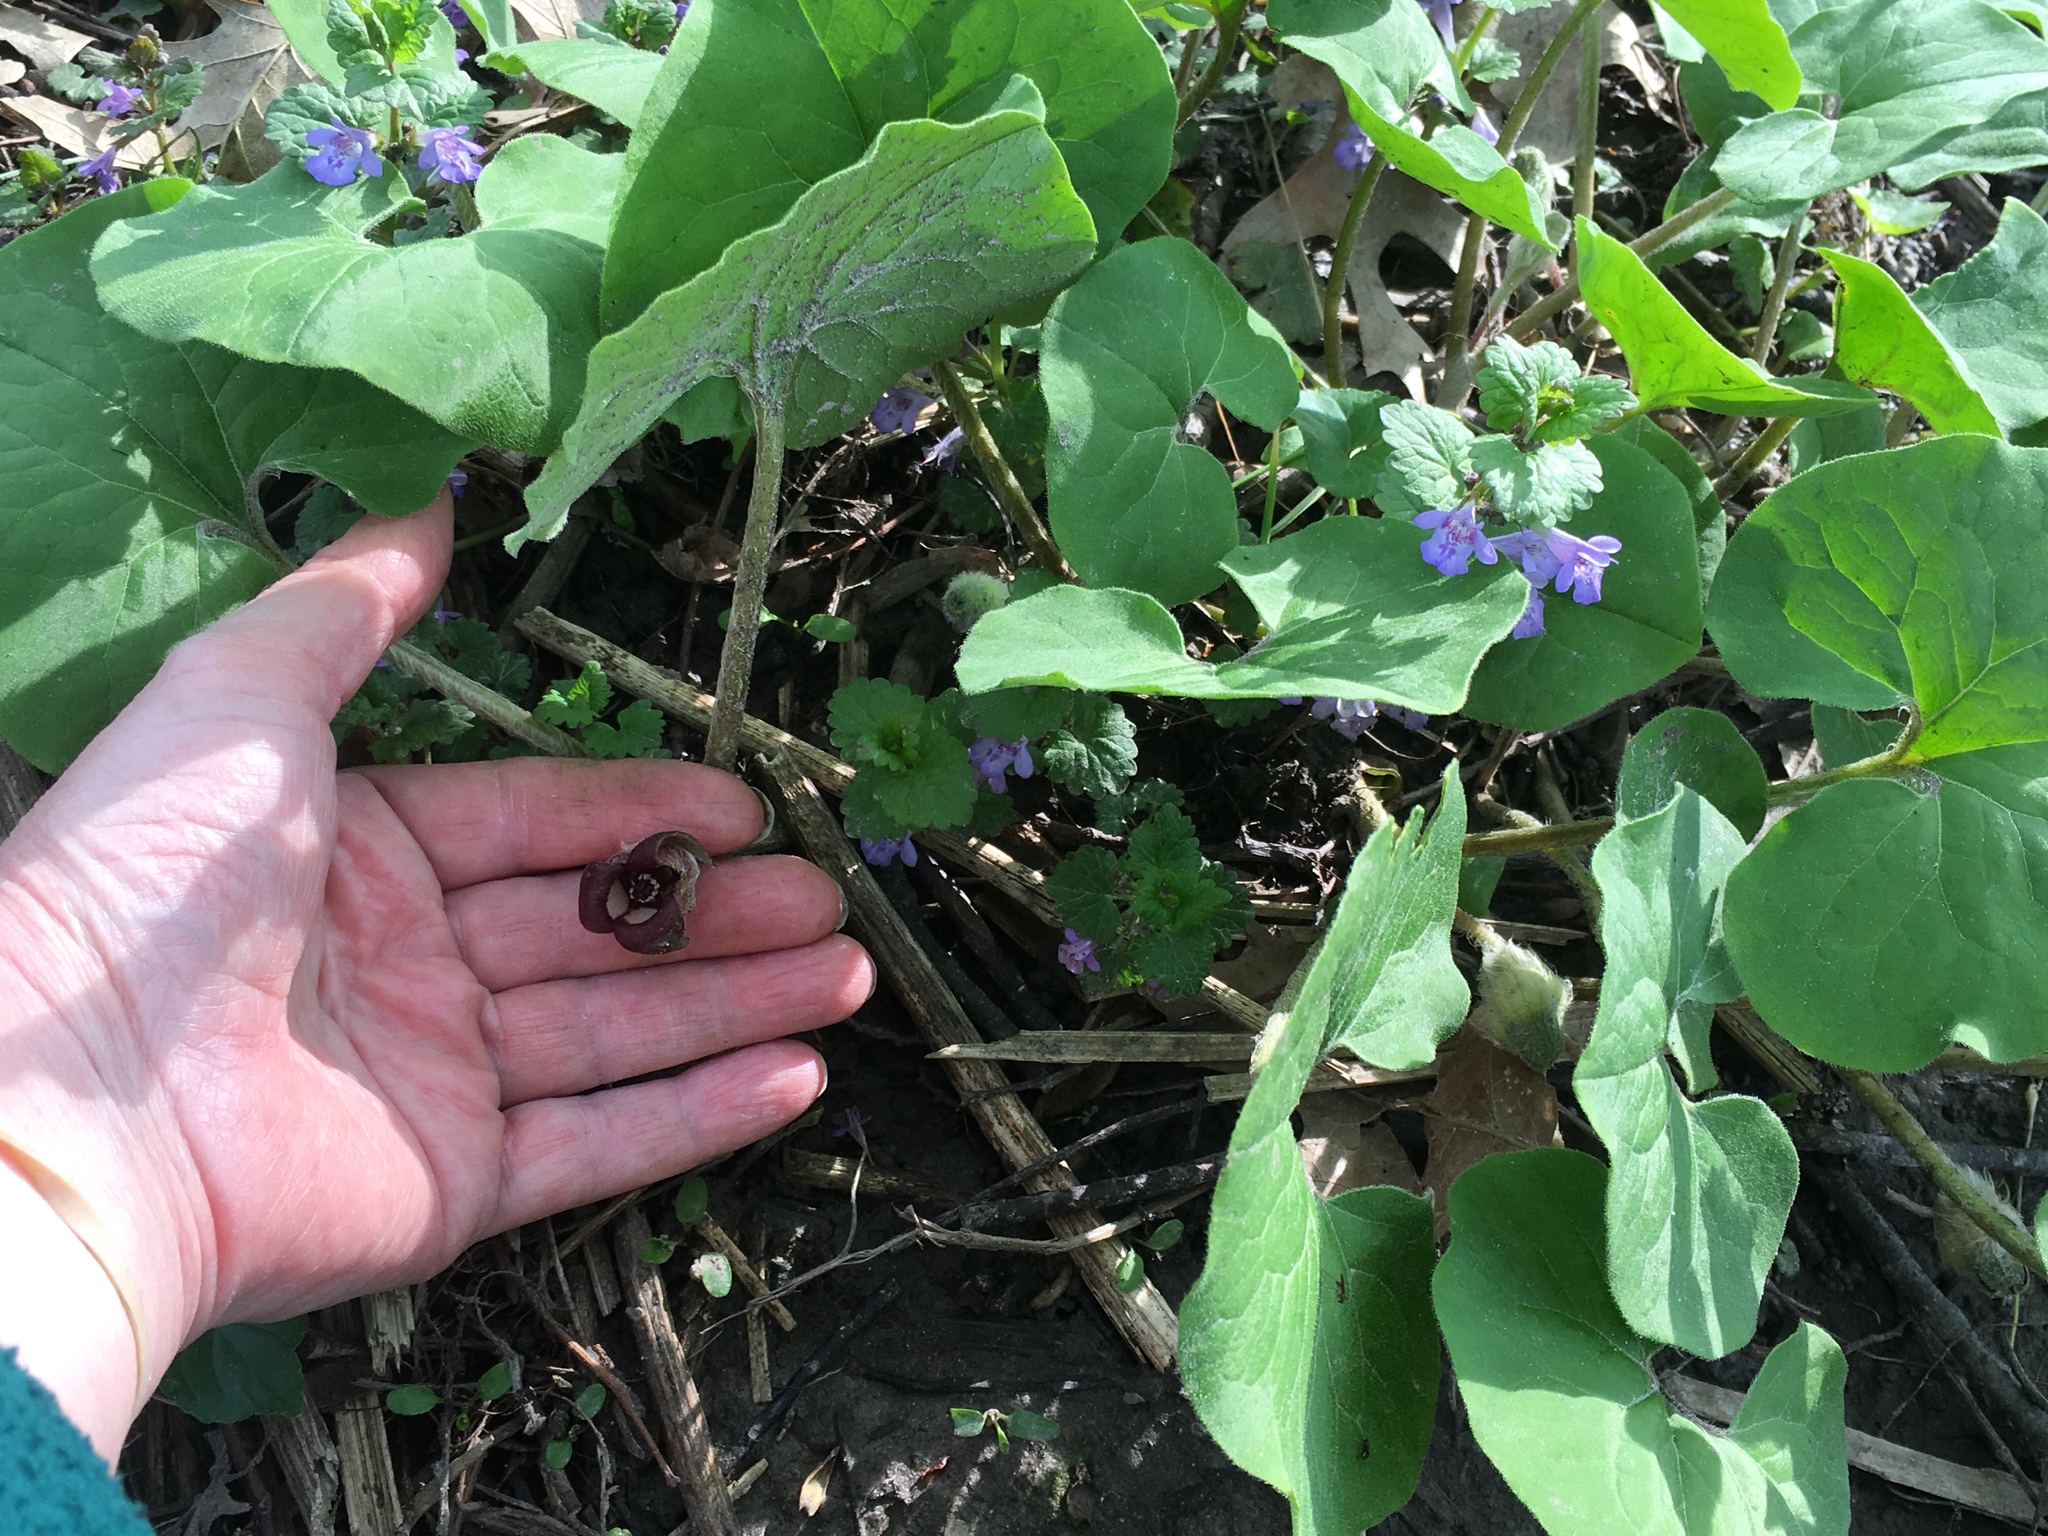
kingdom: Plantae
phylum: Tracheophyta
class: Magnoliopsida
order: Piperales
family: Aristolochiaceae
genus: Asarum
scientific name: Asarum canadense
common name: Wild ginger
